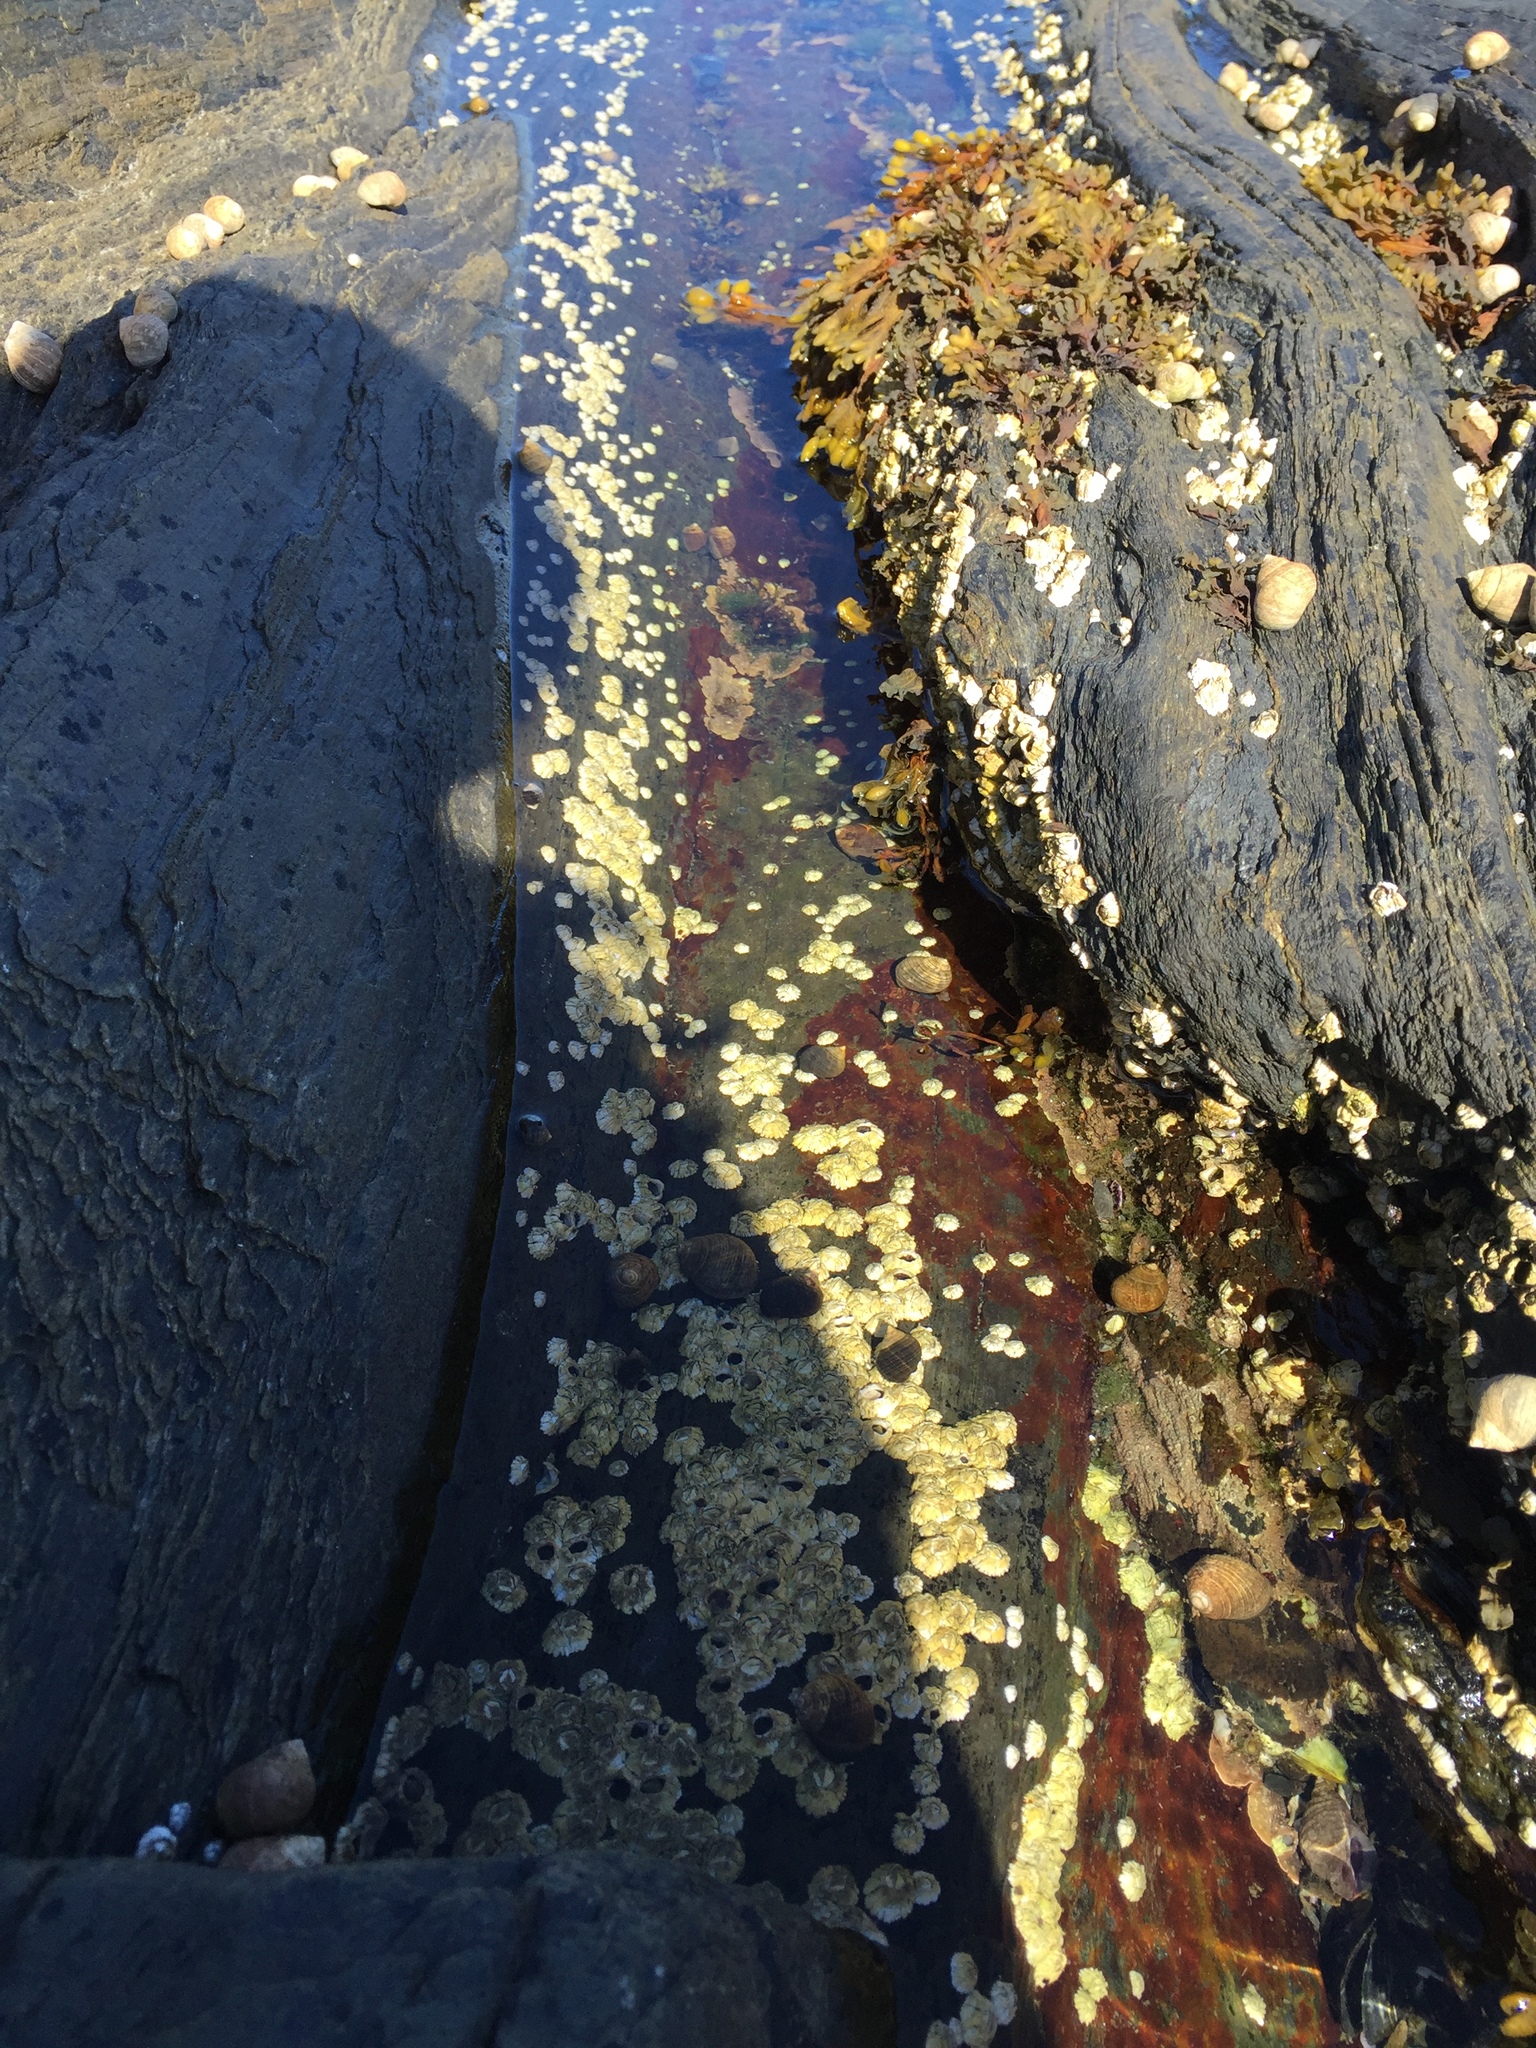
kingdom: Animalia
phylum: Arthropoda
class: Maxillopoda
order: Sessilia
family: Archaeobalanidae
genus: Semibalanus
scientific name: Semibalanus balanoides
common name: Acorn barnacle
